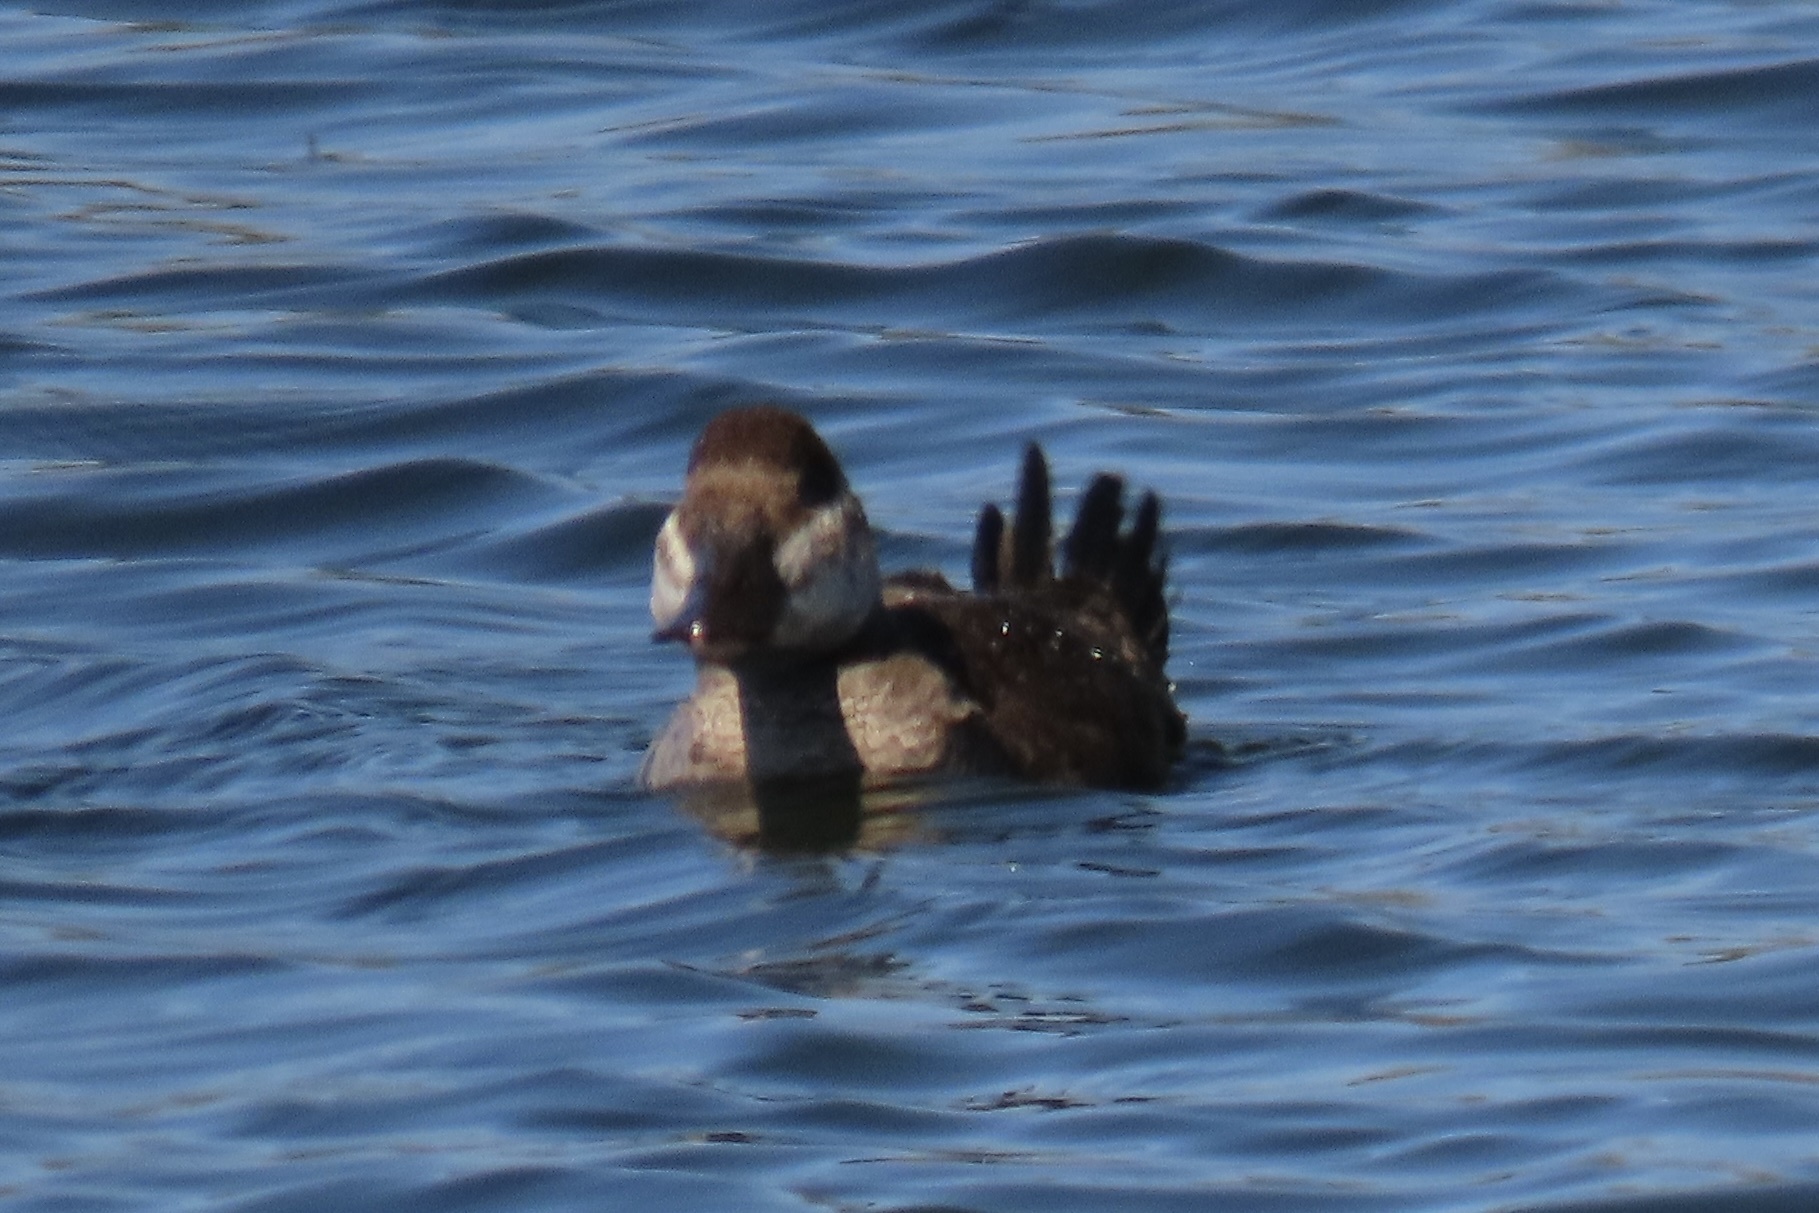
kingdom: Animalia
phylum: Chordata
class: Aves
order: Anseriformes
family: Anatidae
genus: Oxyura
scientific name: Oxyura jamaicensis
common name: Ruddy duck
